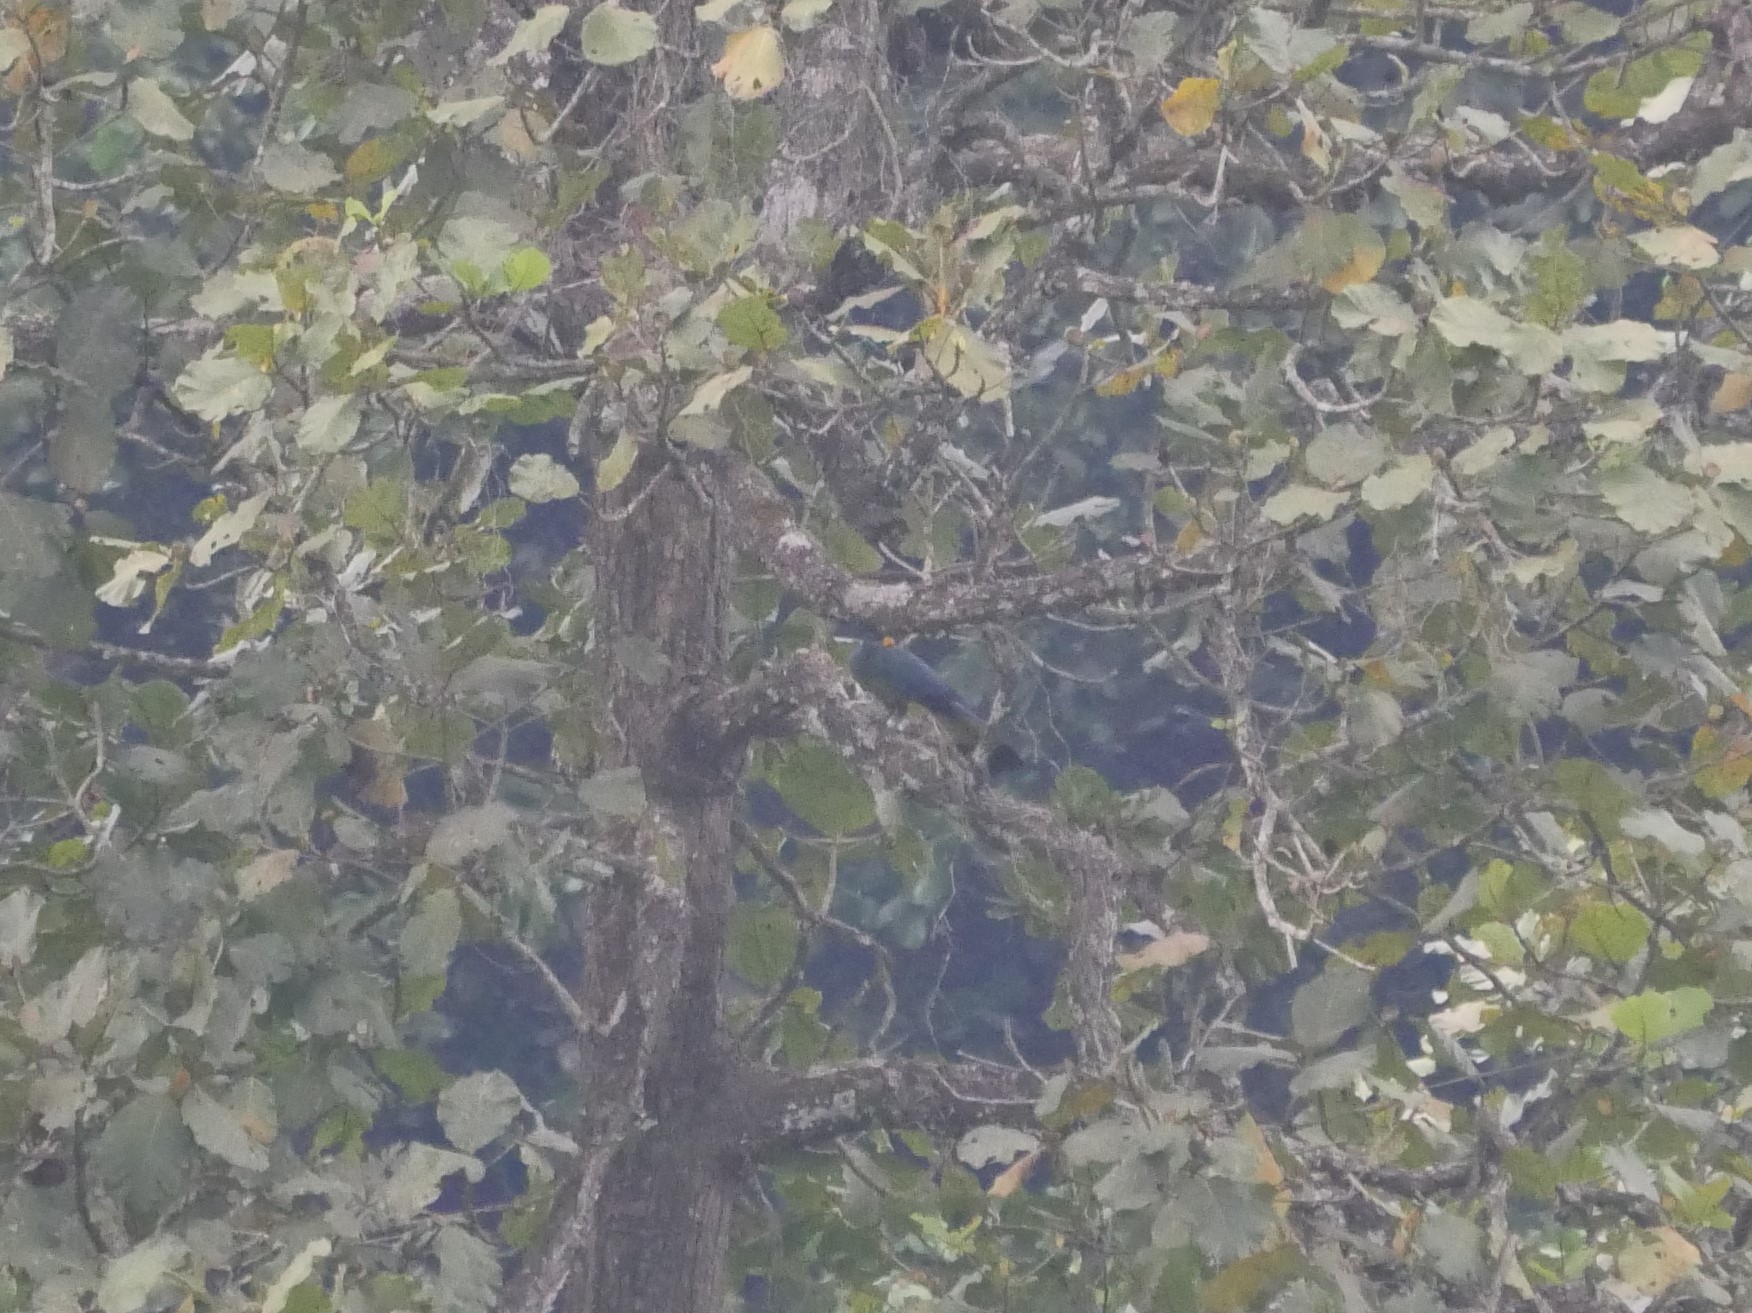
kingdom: Animalia
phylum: Chordata
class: Aves
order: Musophagiformes
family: Musophagidae
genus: Corythaeola
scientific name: Corythaeola cristata
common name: Great blue turaco
